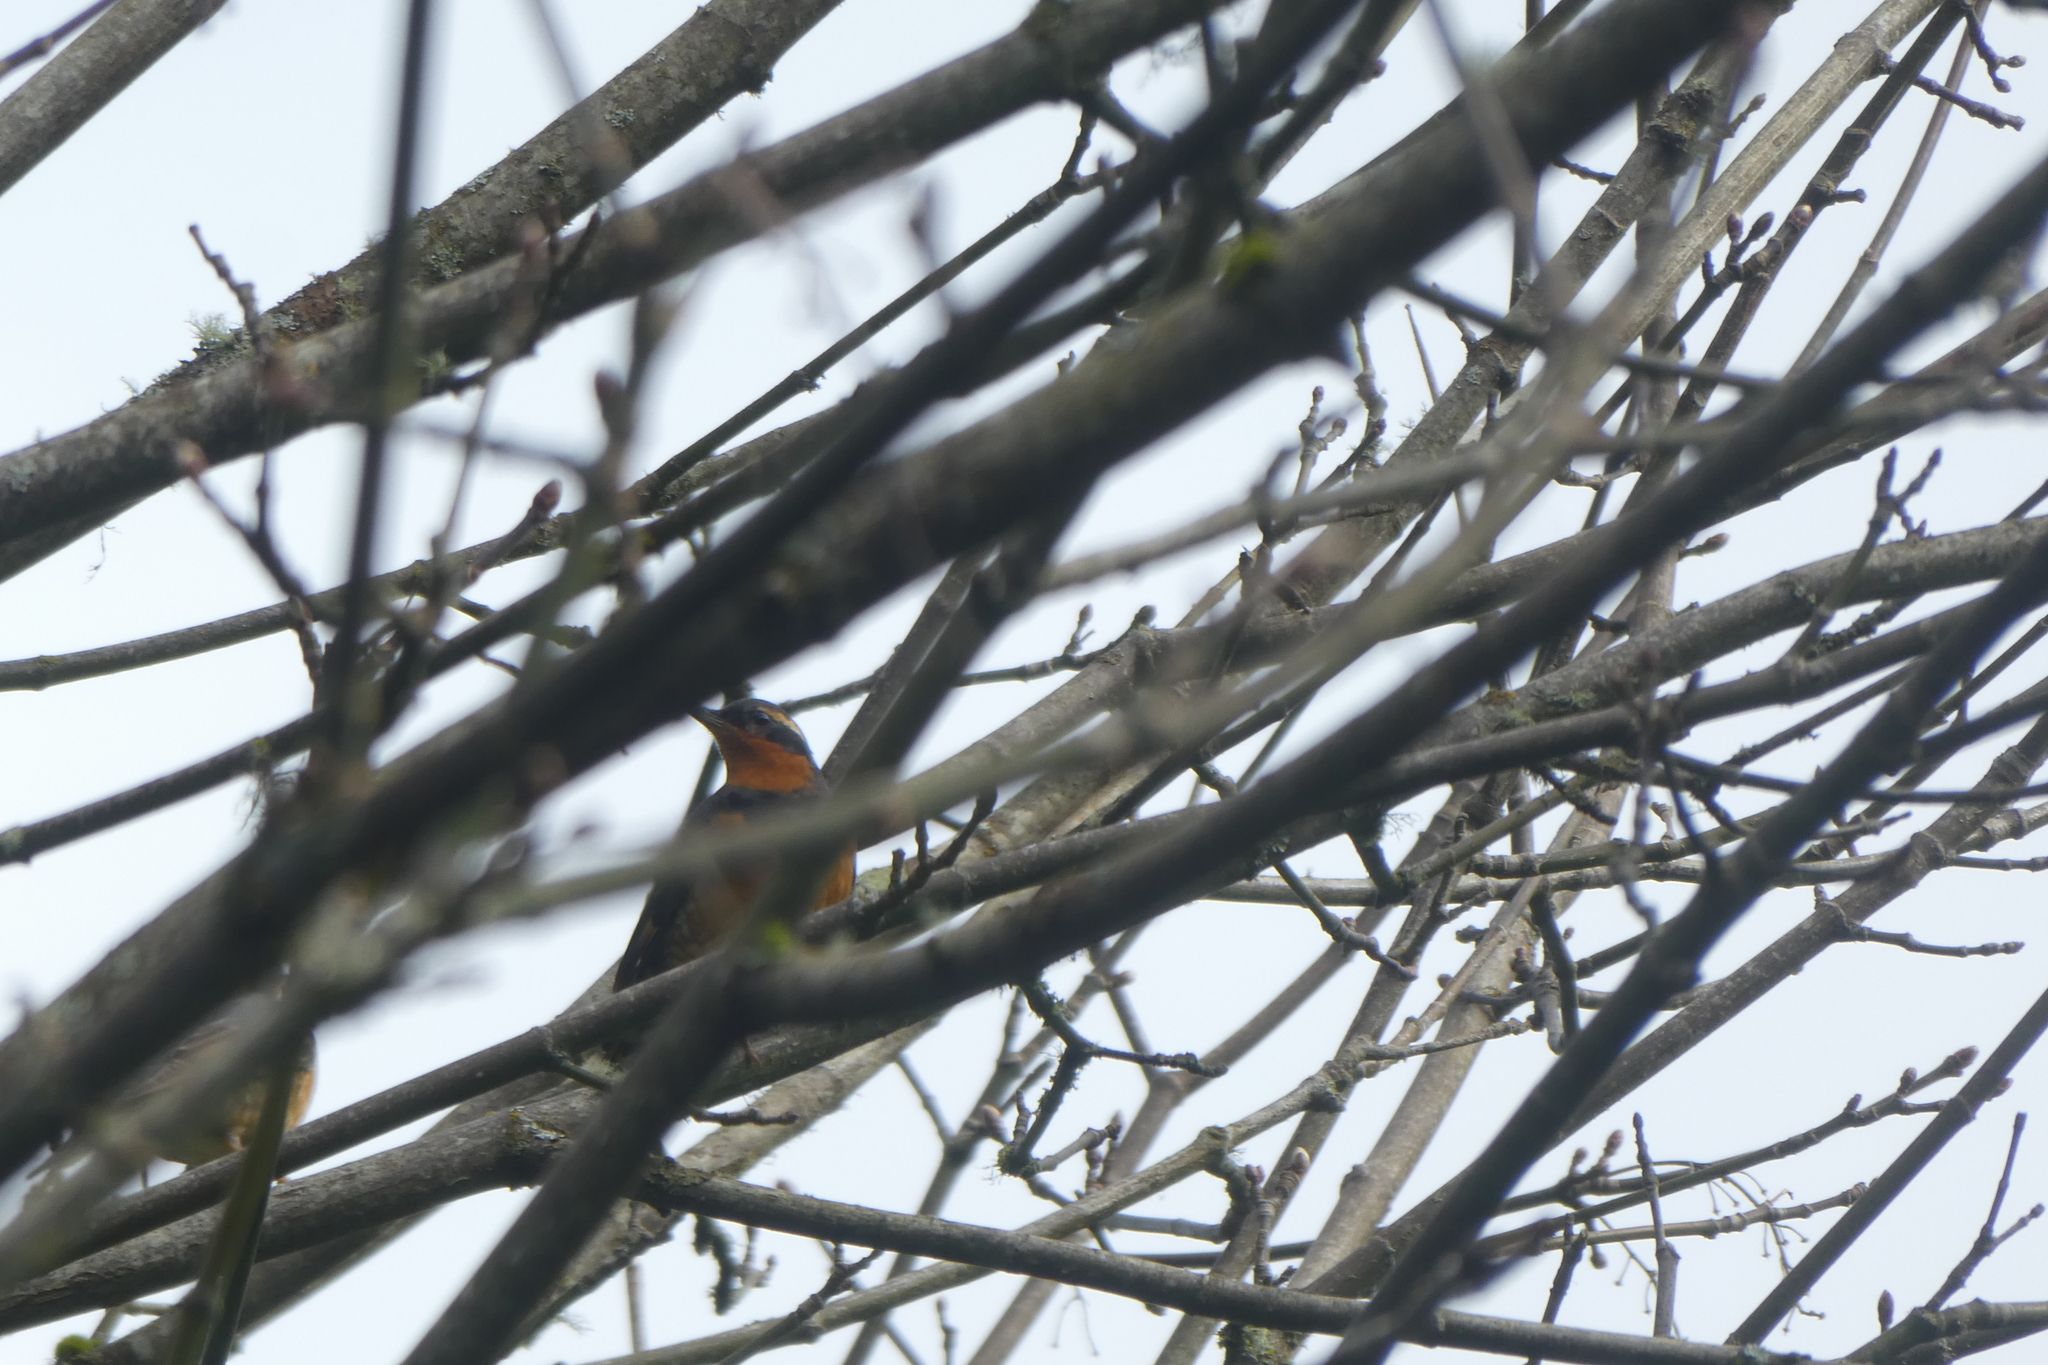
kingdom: Animalia
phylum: Chordata
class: Aves
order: Passeriformes
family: Turdidae
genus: Ixoreus
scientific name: Ixoreus naevius
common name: Varied thrush
